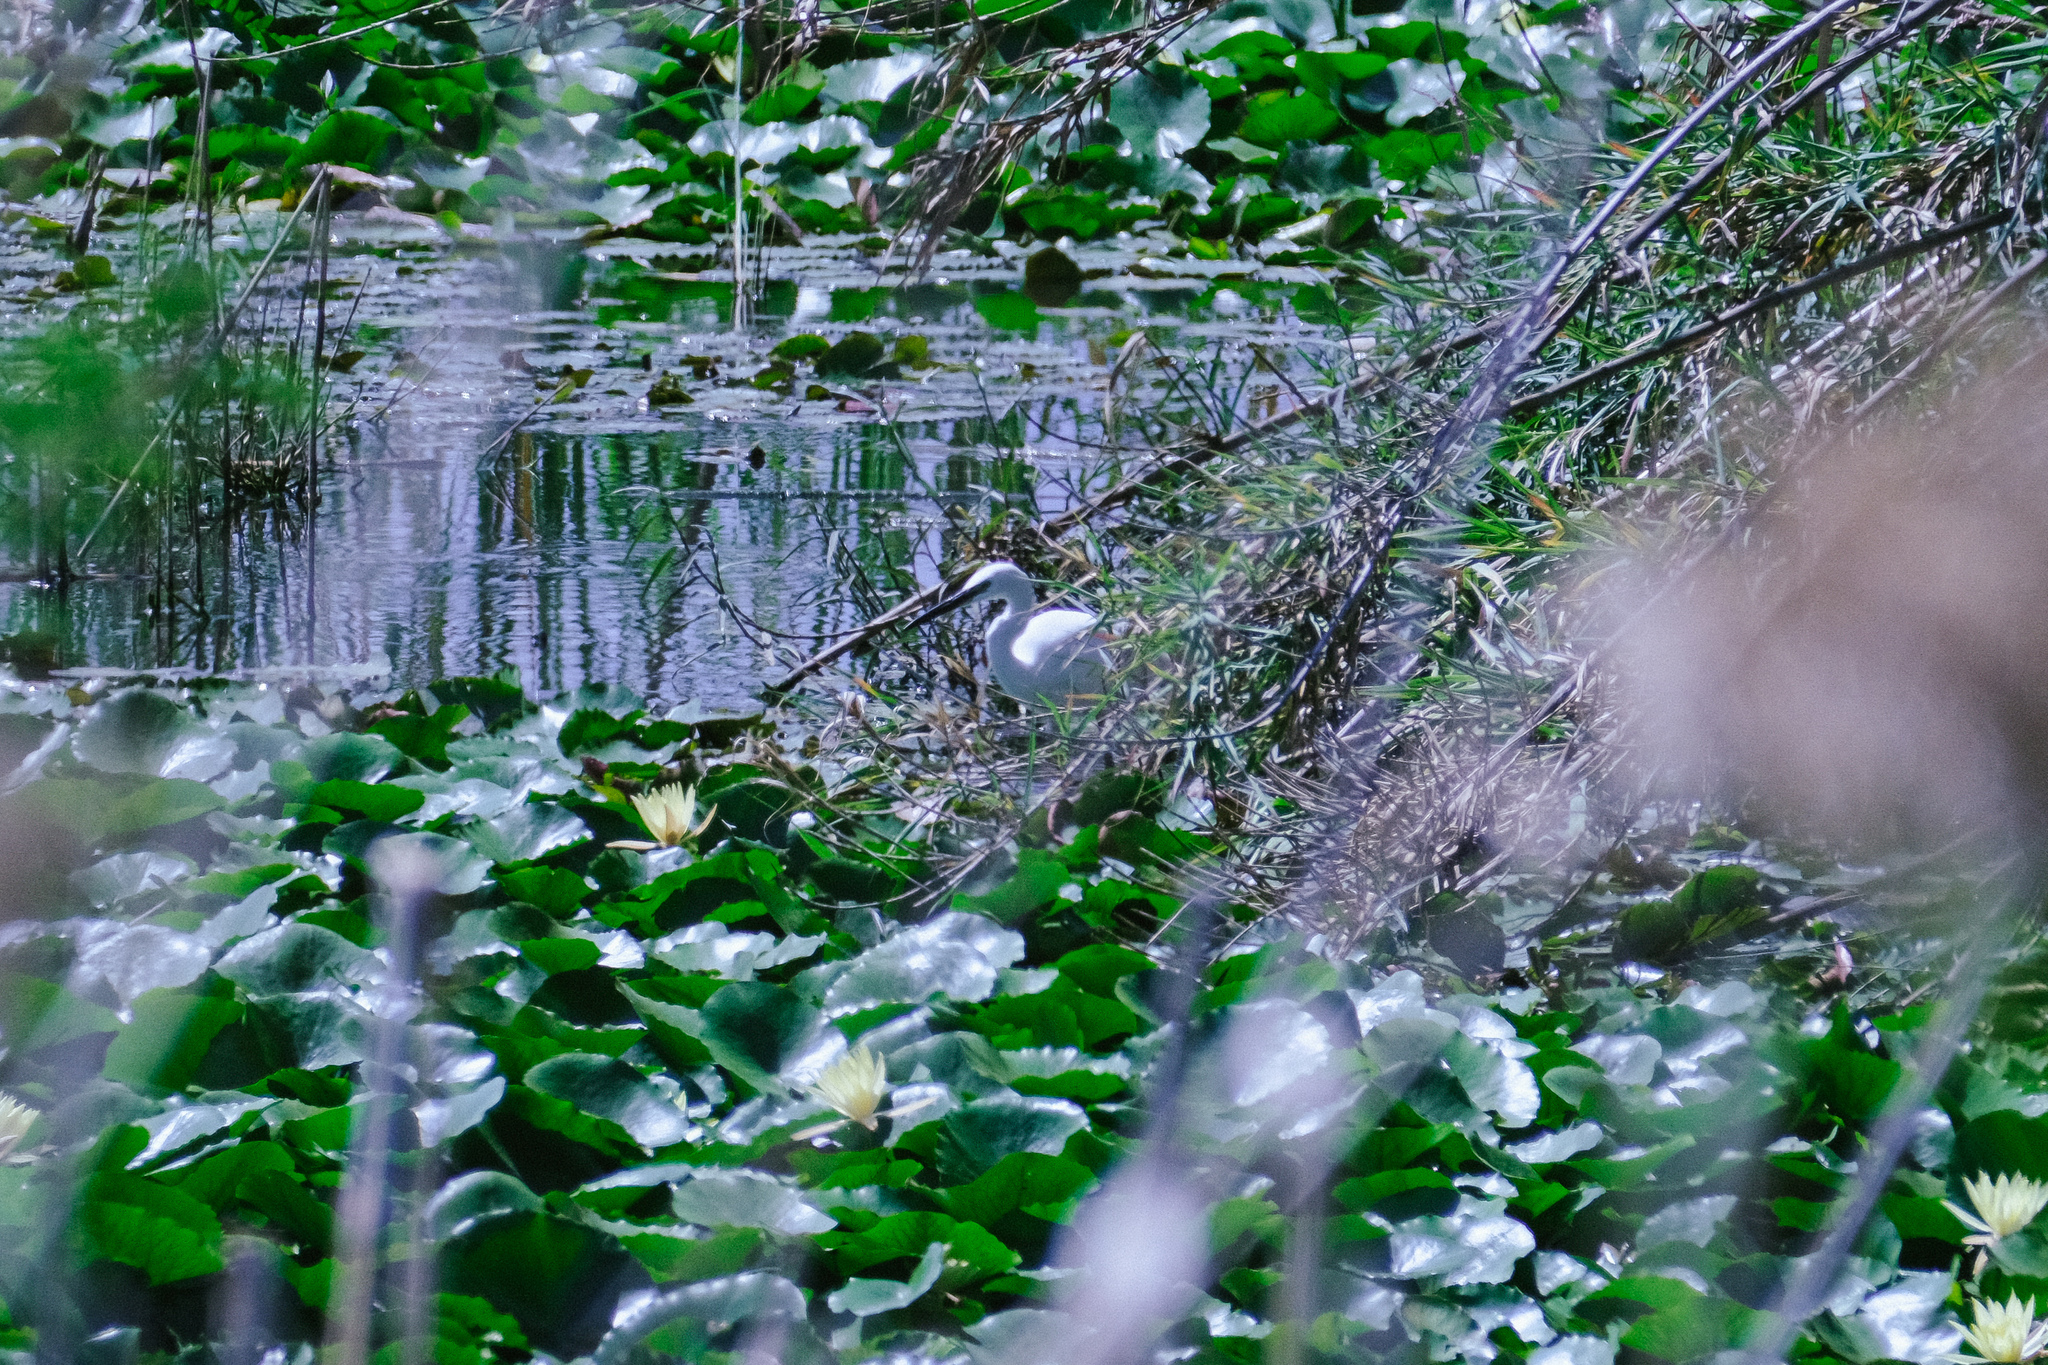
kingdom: Animalia
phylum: Chordata
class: Aves
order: Pelecaniformes
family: Ardeidae
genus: Egretta
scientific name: Egretta garzetta
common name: Little egret
